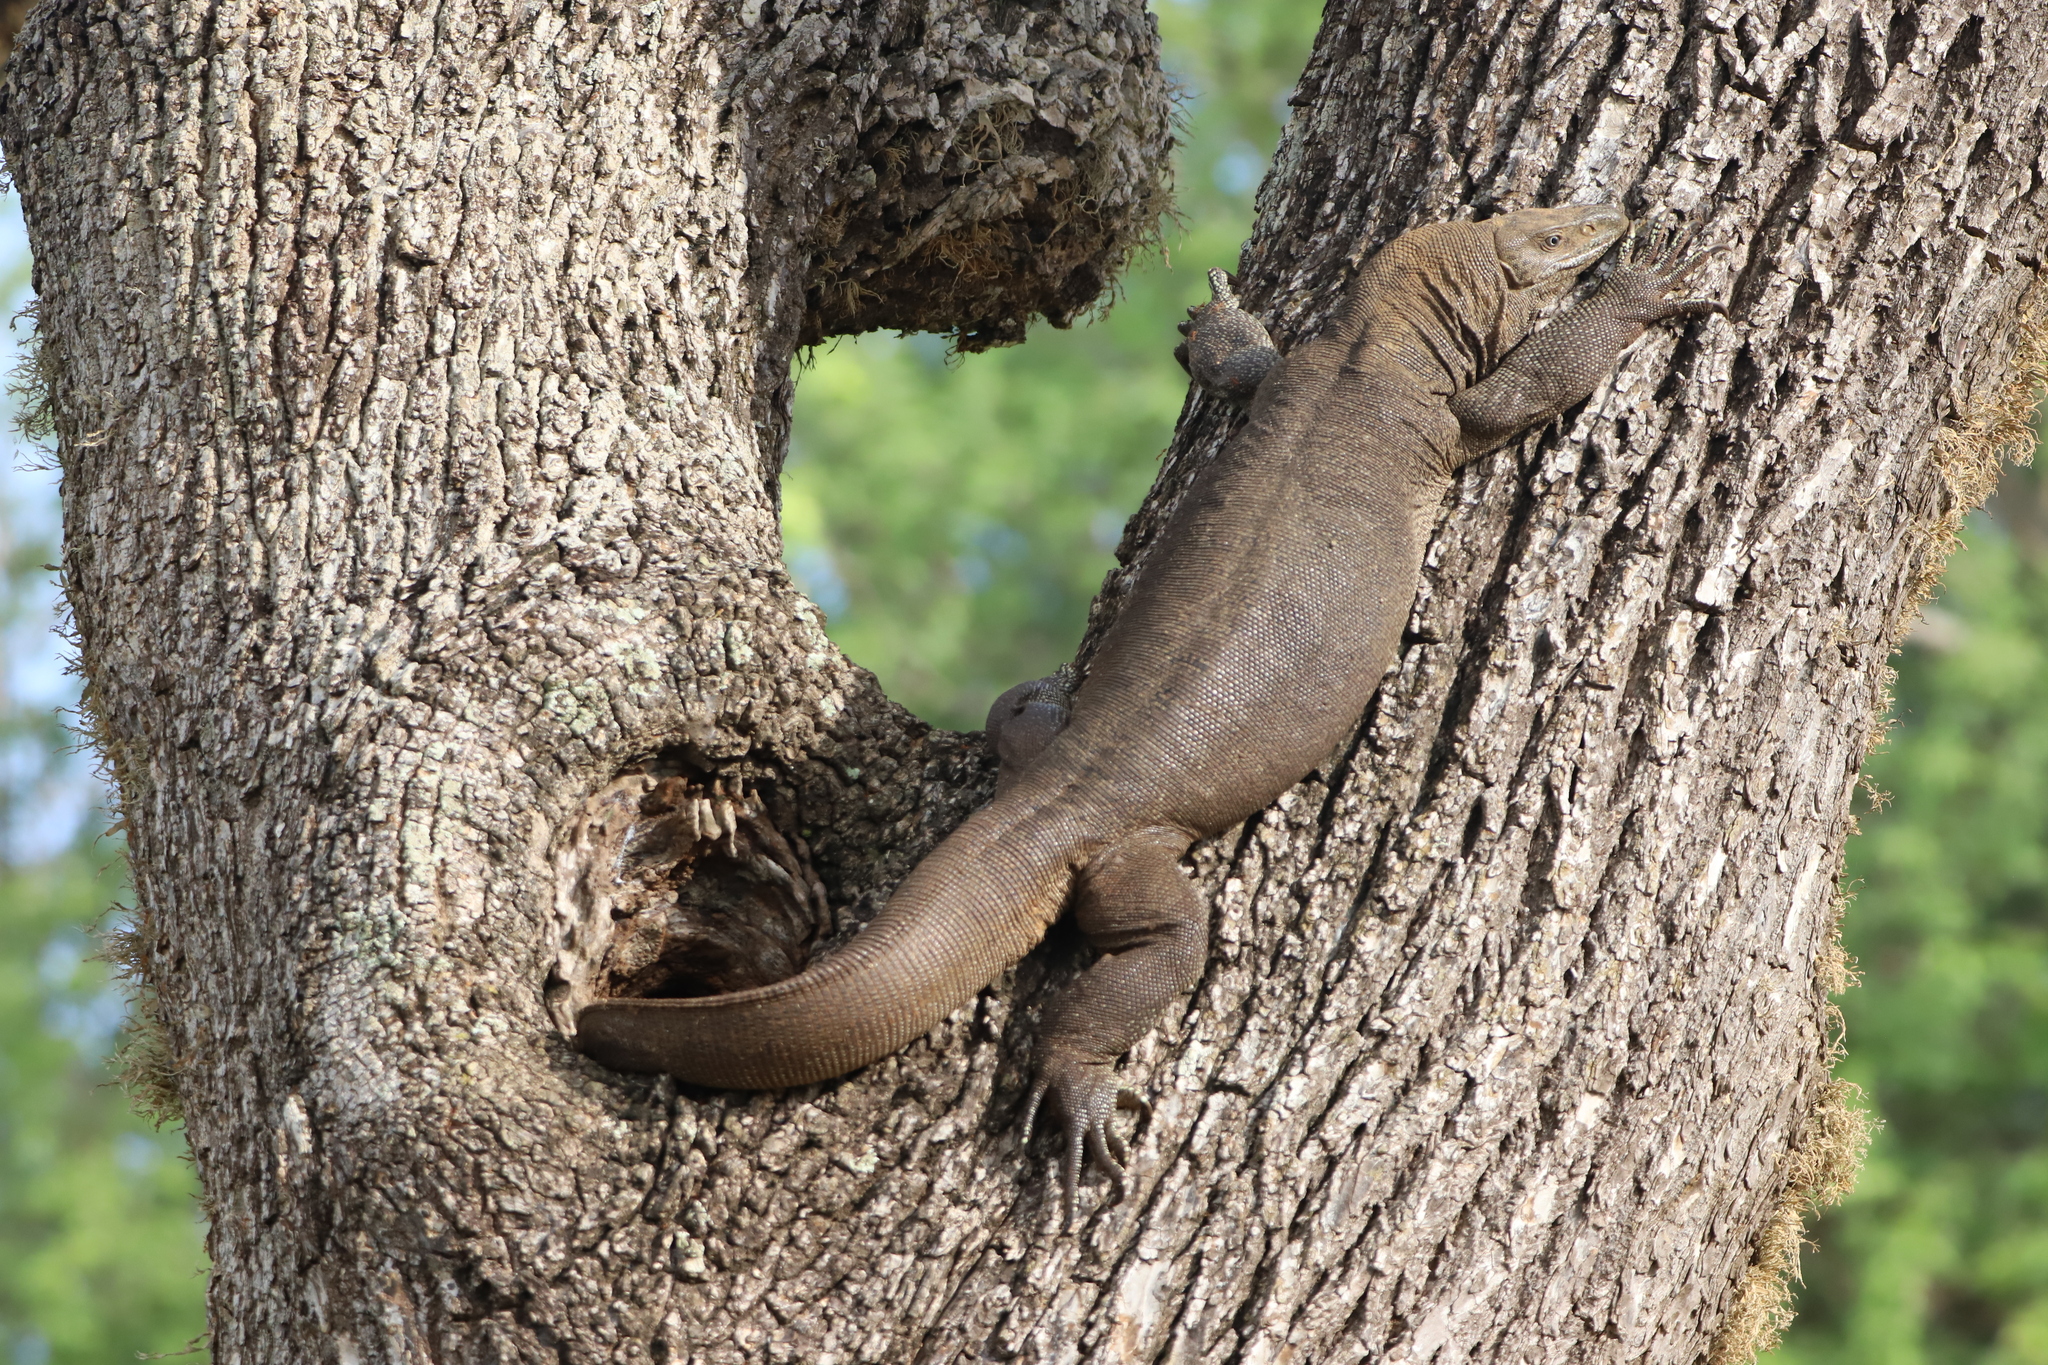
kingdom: Animalia
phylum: Chordata
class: Squamata
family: Varanidae
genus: Varanus
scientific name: Varanus bengalensis
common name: Bengal monitor
